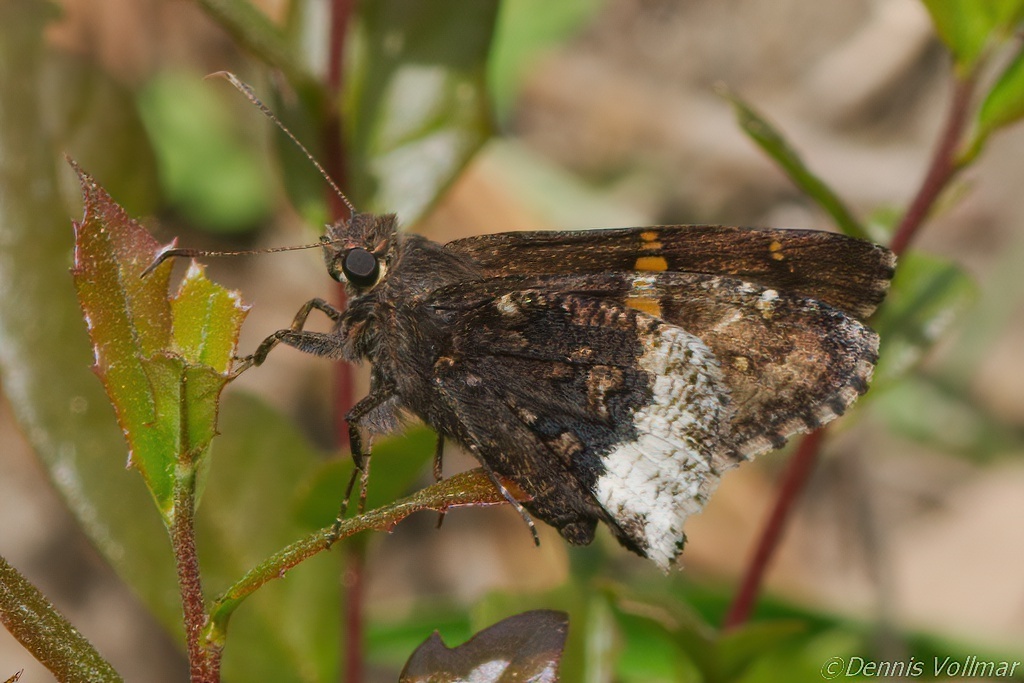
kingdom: Animalia
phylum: Arthropoda
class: Insecta
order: Lepidoptera
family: Hesperiidae
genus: Thorybes
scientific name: Thorybes lyciades
